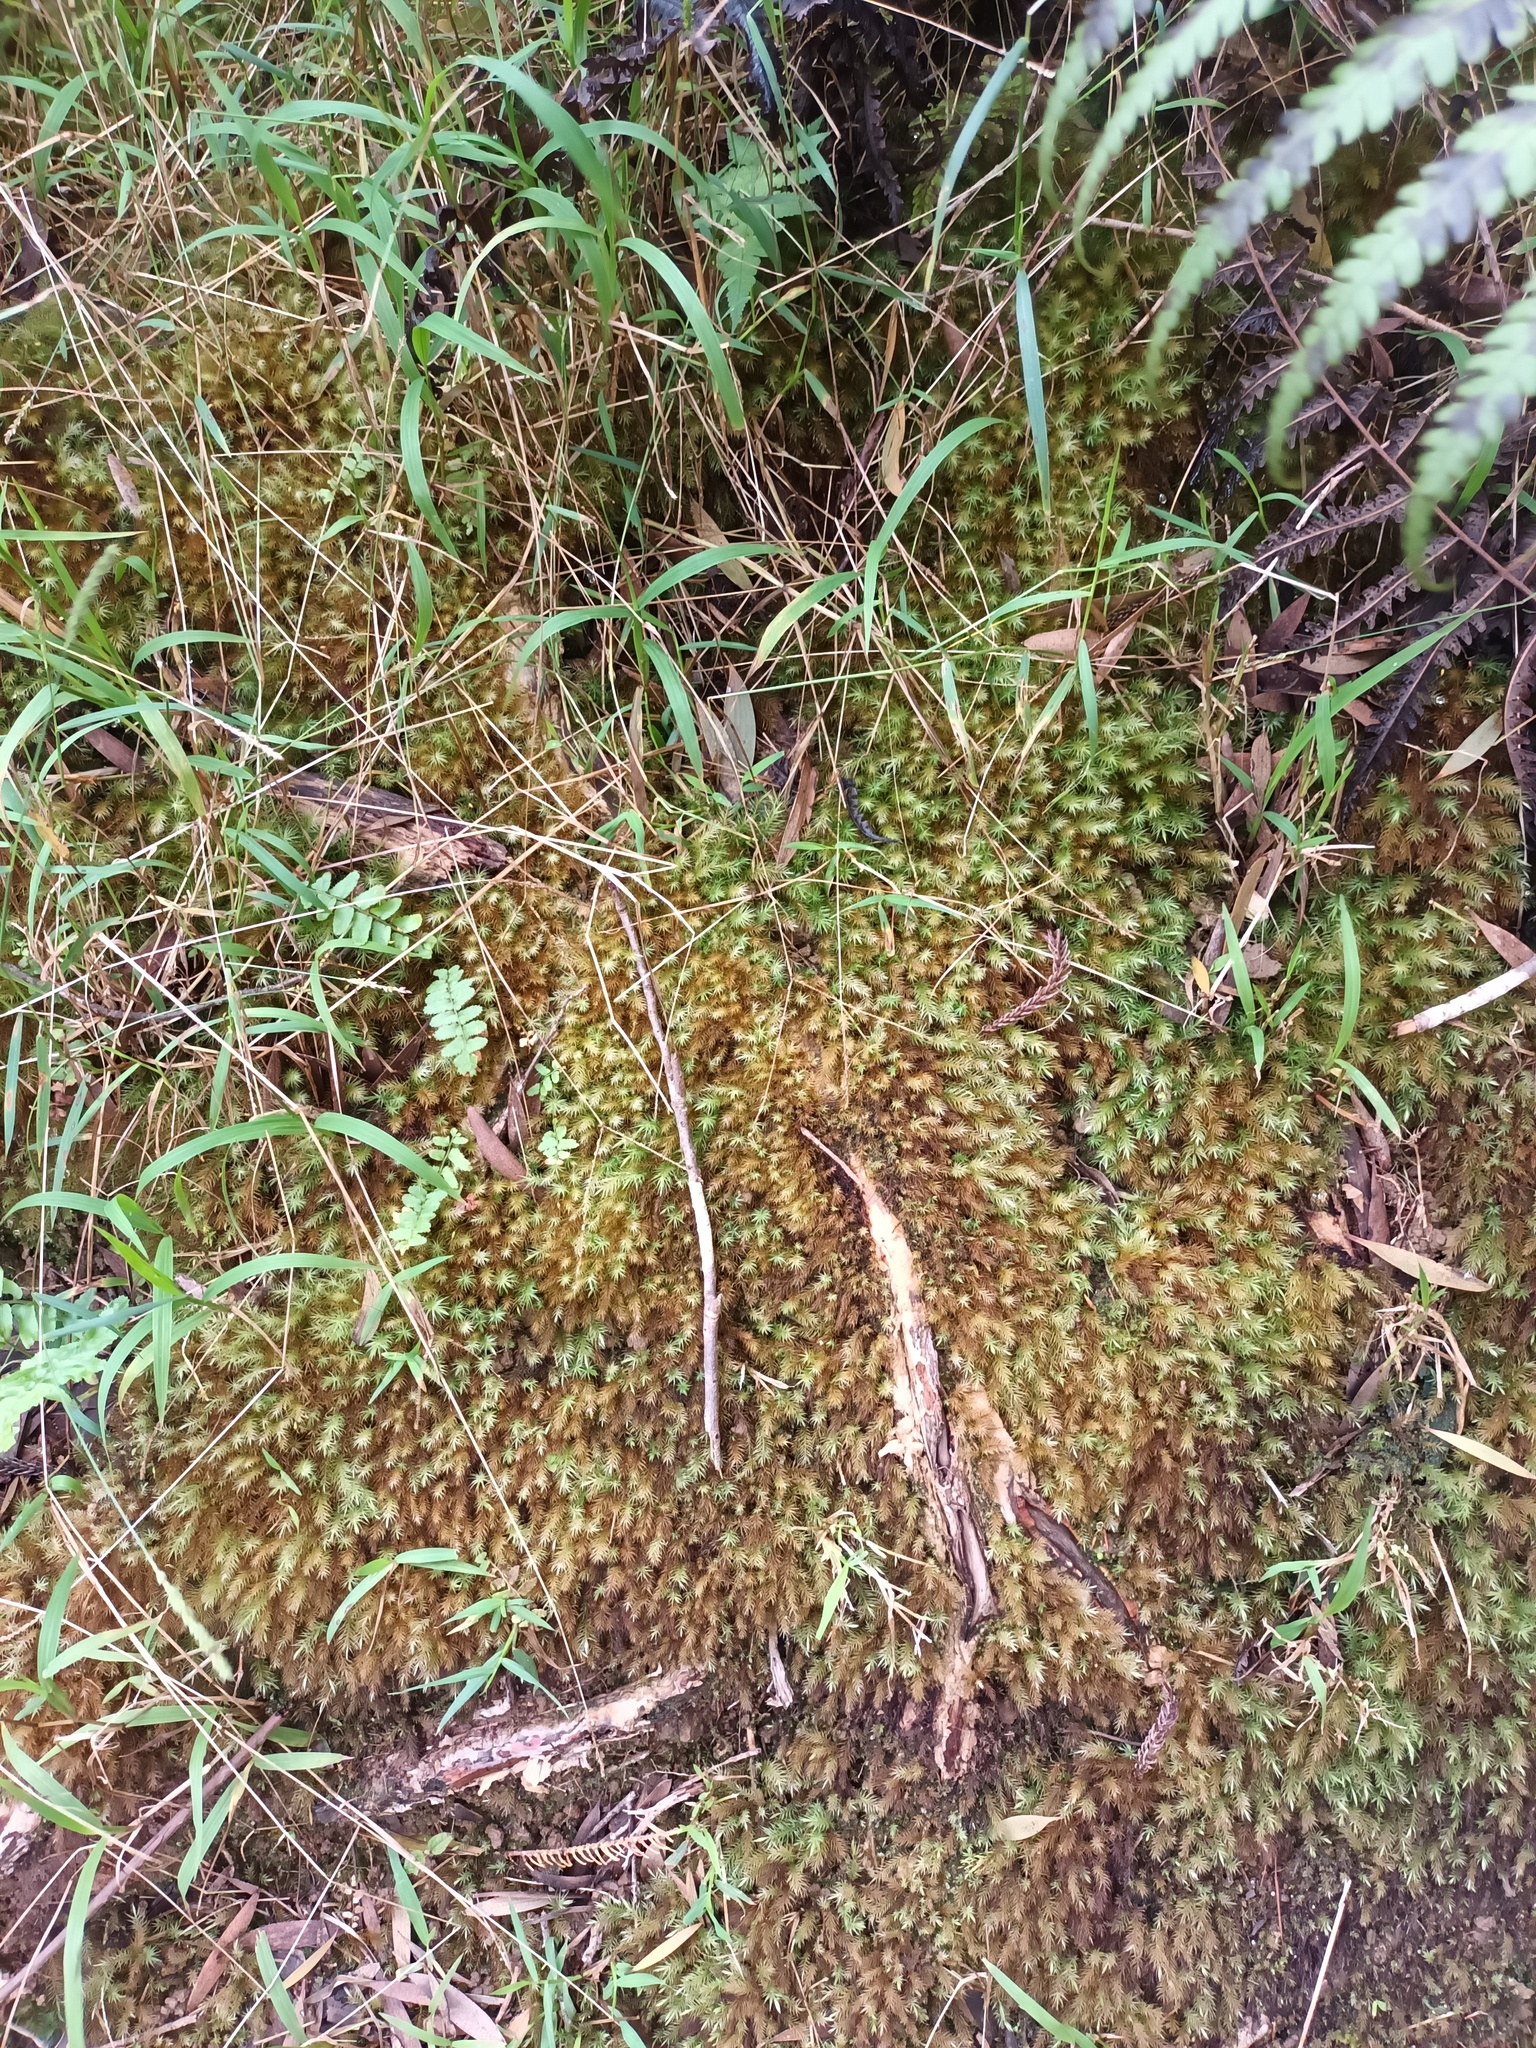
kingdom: Plantae
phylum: Bryophyta
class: Bryopsida
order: Rhizogoniales
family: Calomniaceae
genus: Pyrrhobryum
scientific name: Pyrrhobryum spiniforme
